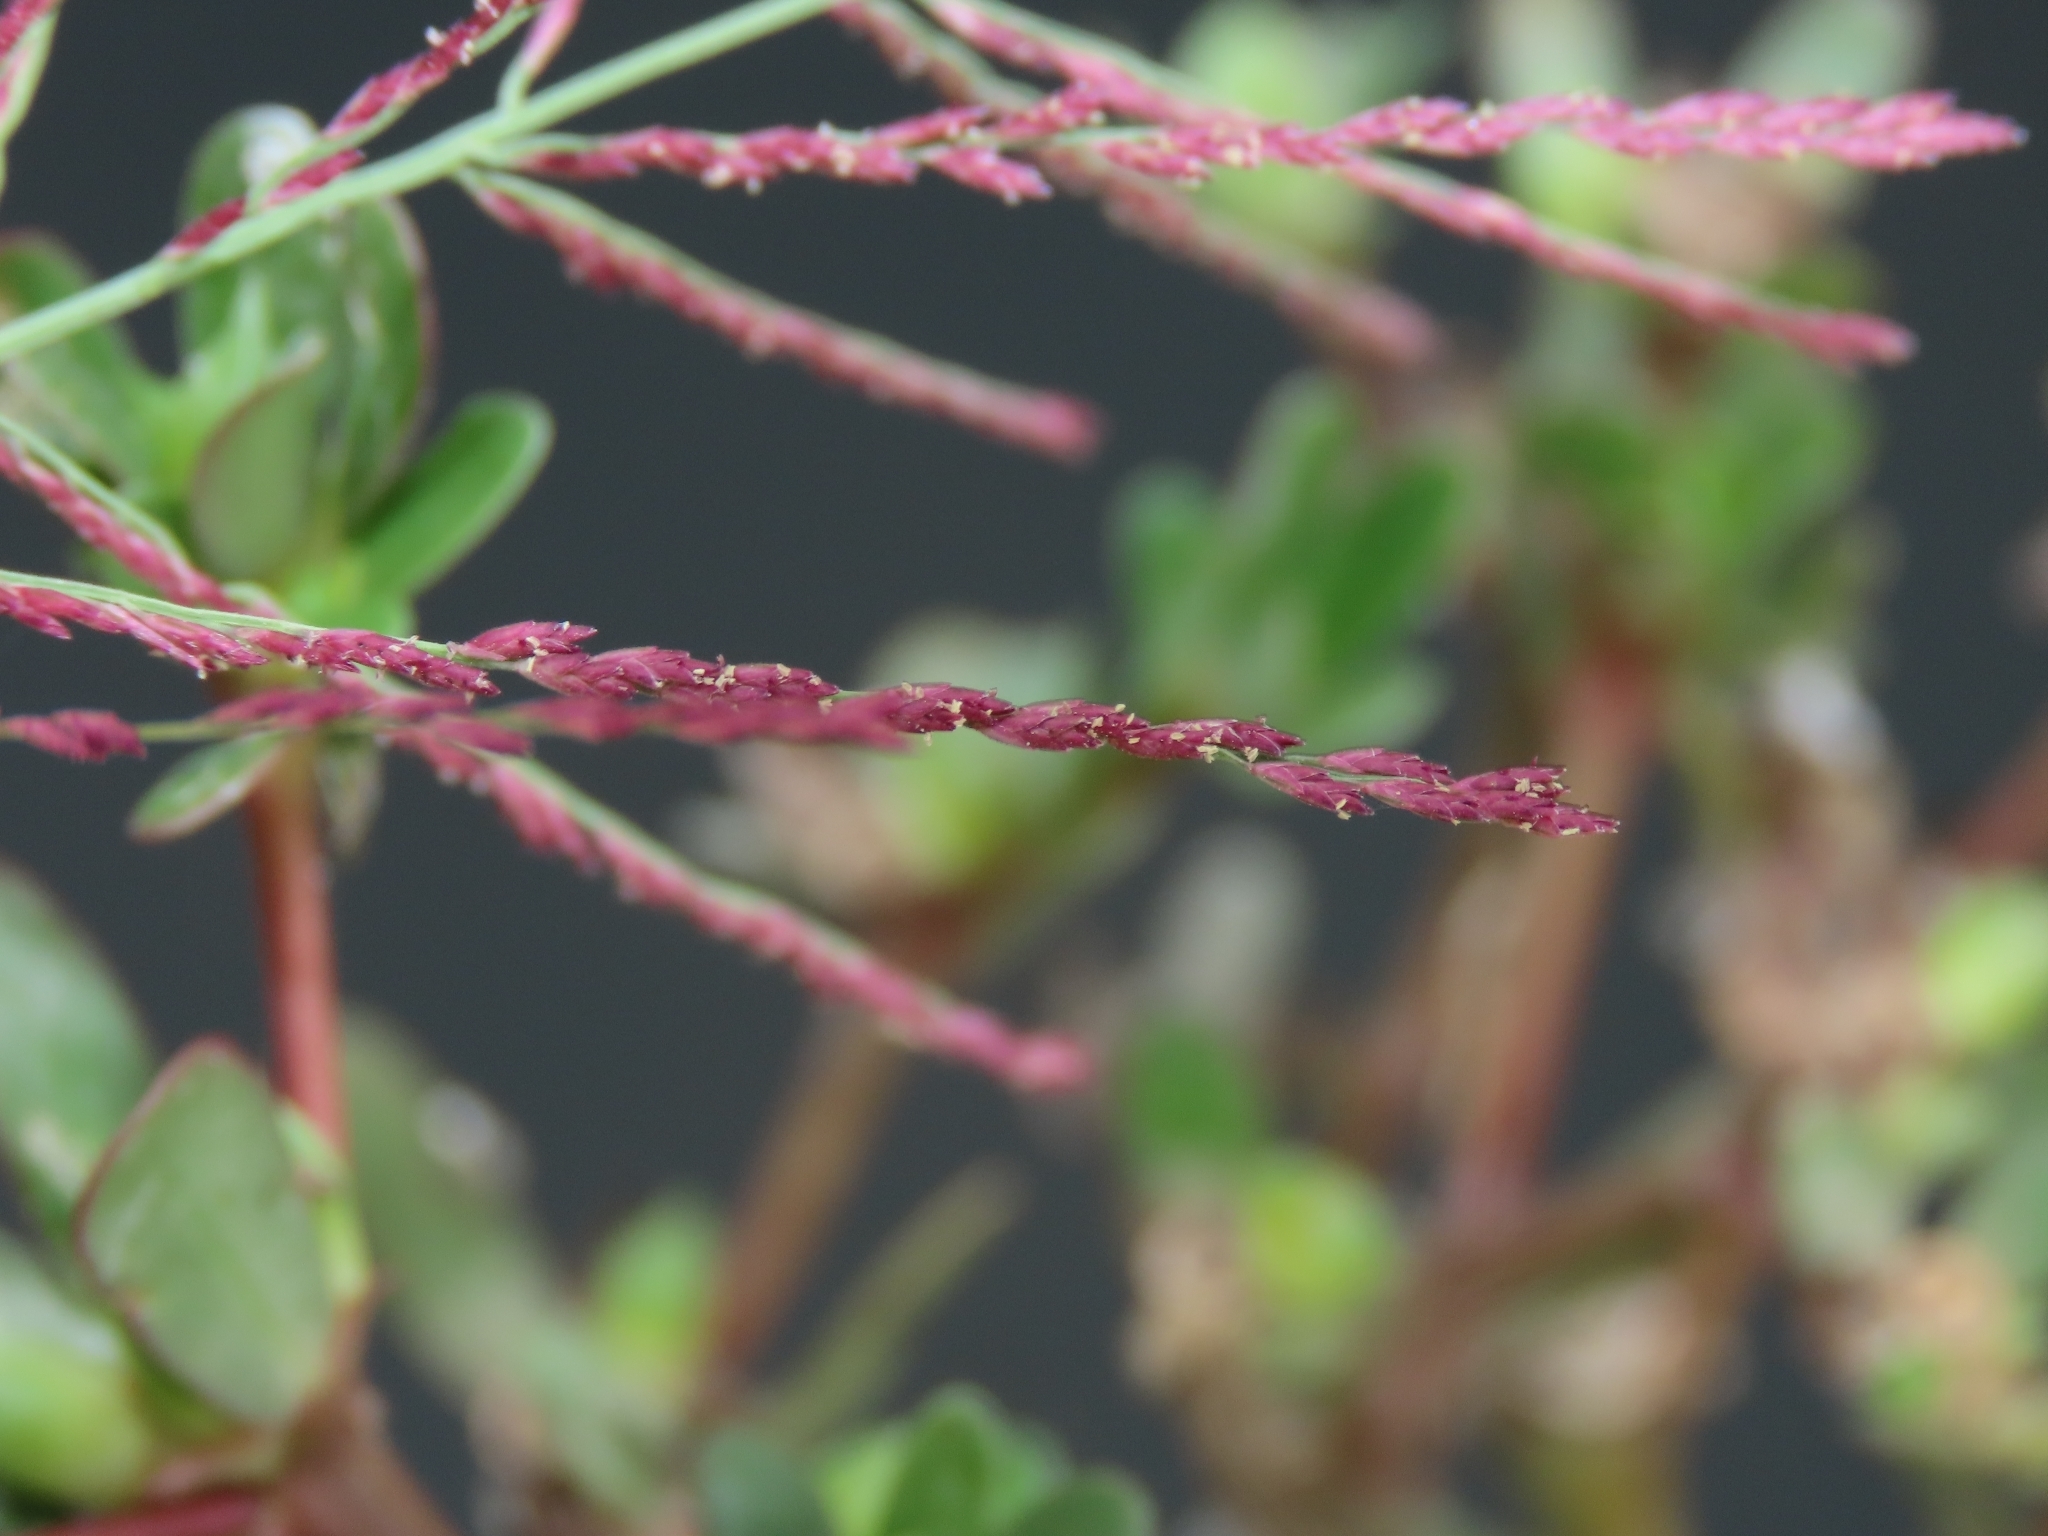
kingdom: Plantae
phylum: Tracheophyta
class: Liliopsida
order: Poales
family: Poaceae
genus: Leptochloa
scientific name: Leptochloa chinensis
